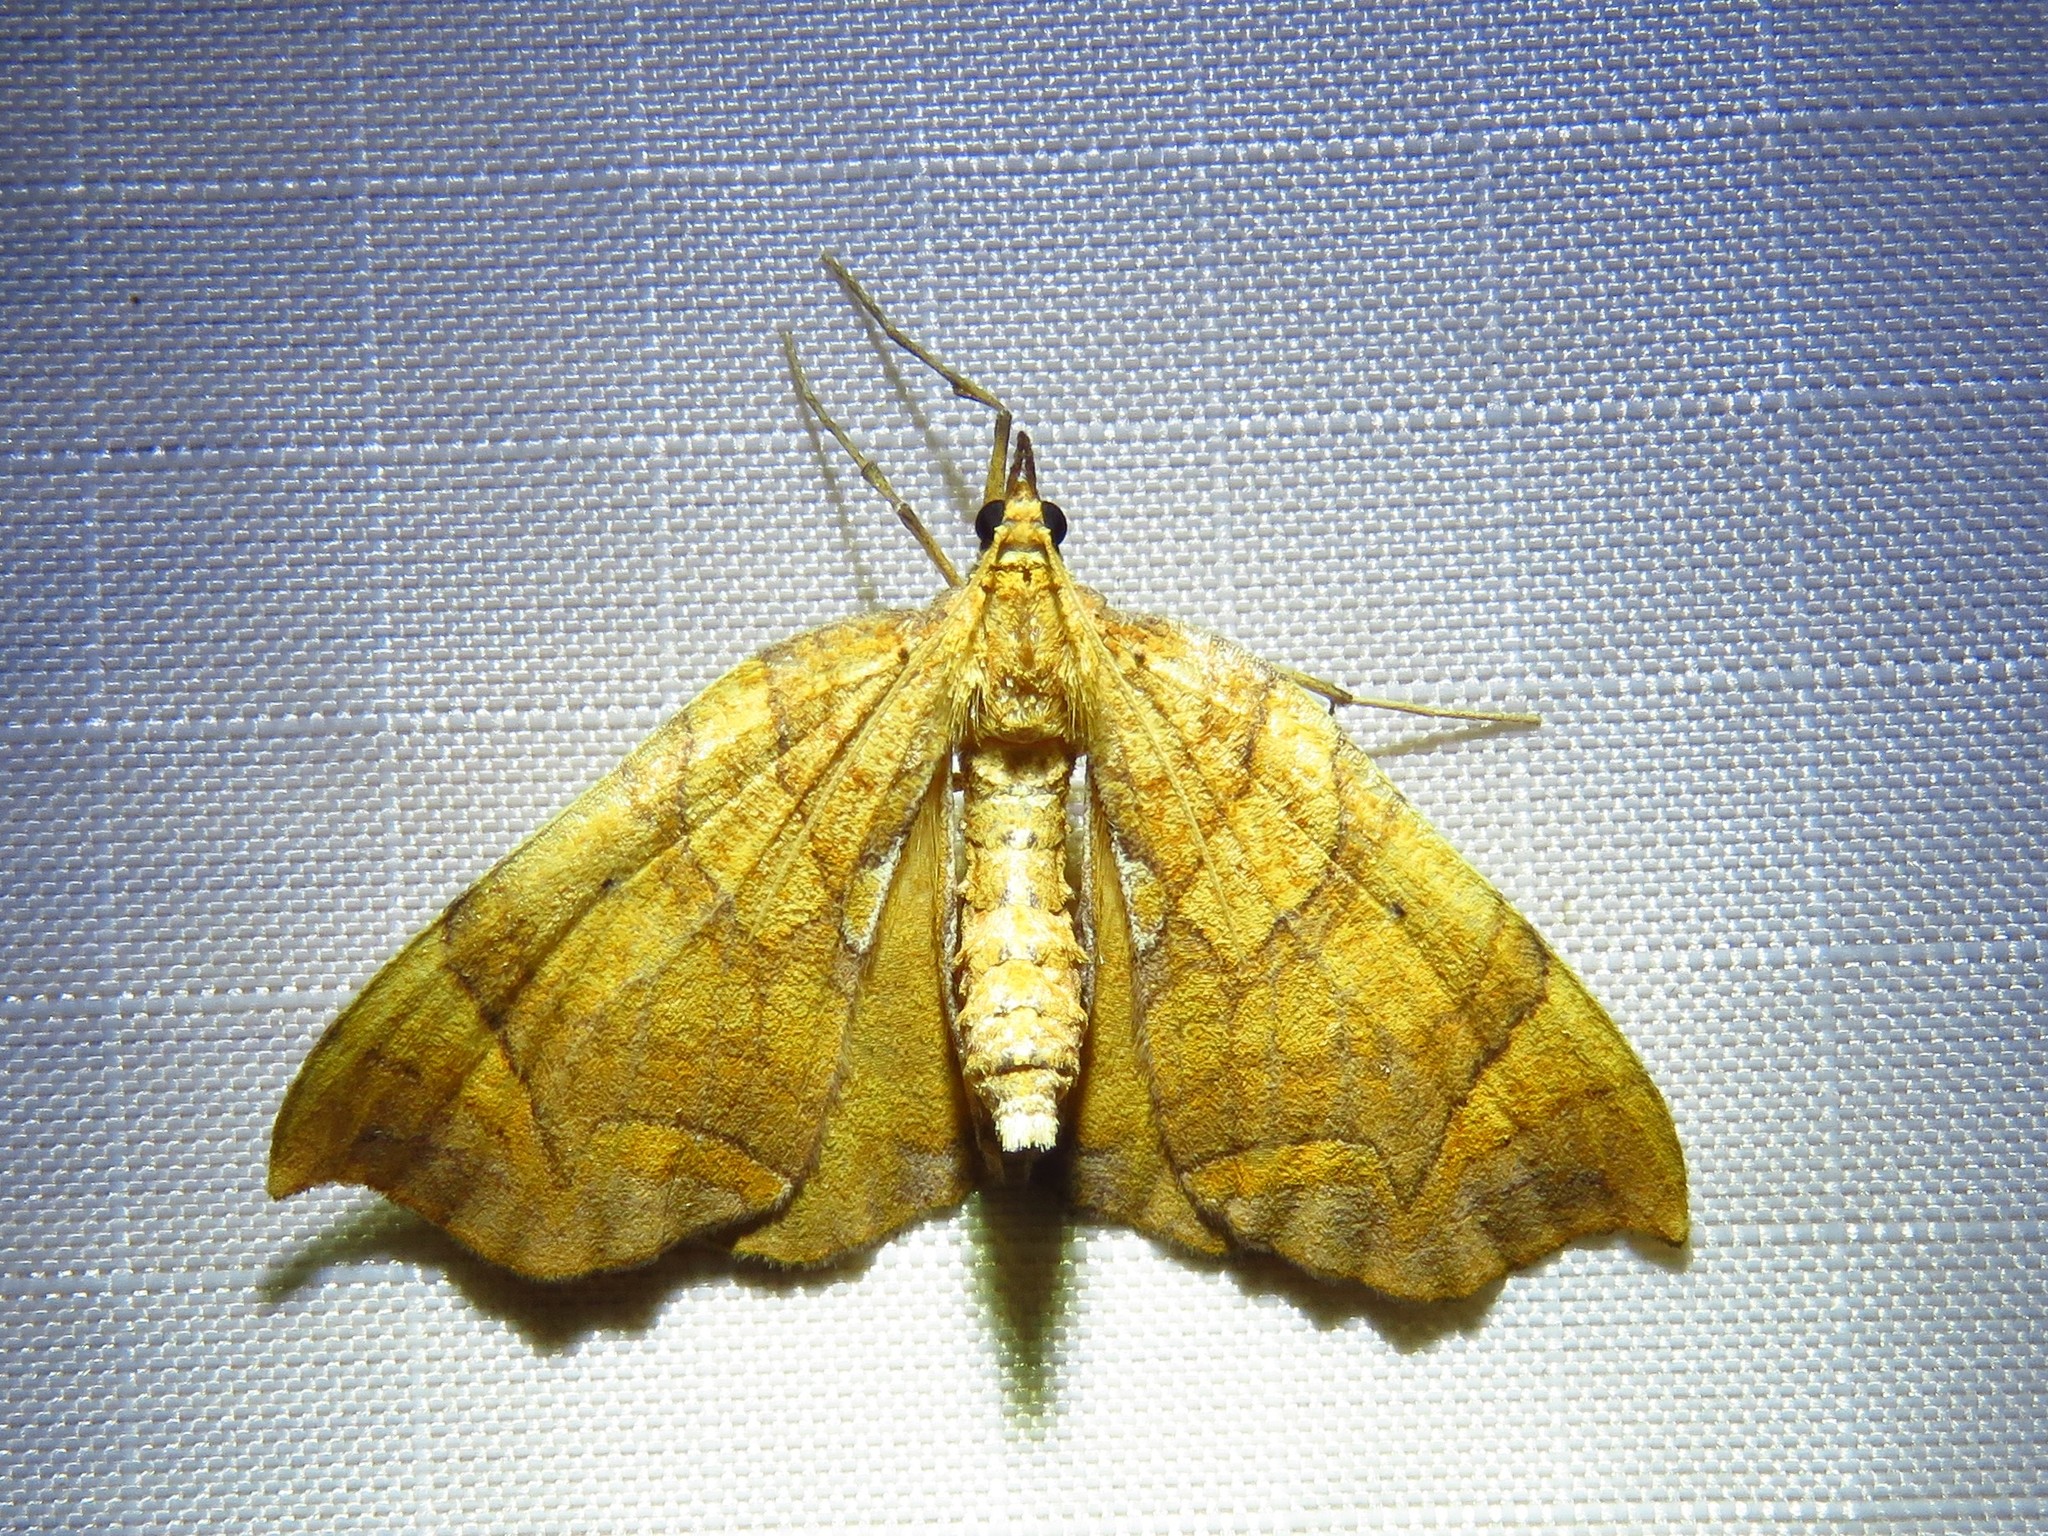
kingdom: Animalia
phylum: Arthropoda
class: Insecta
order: Lepidoptera
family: Geometridae
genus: Eulithis
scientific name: Eulithis
